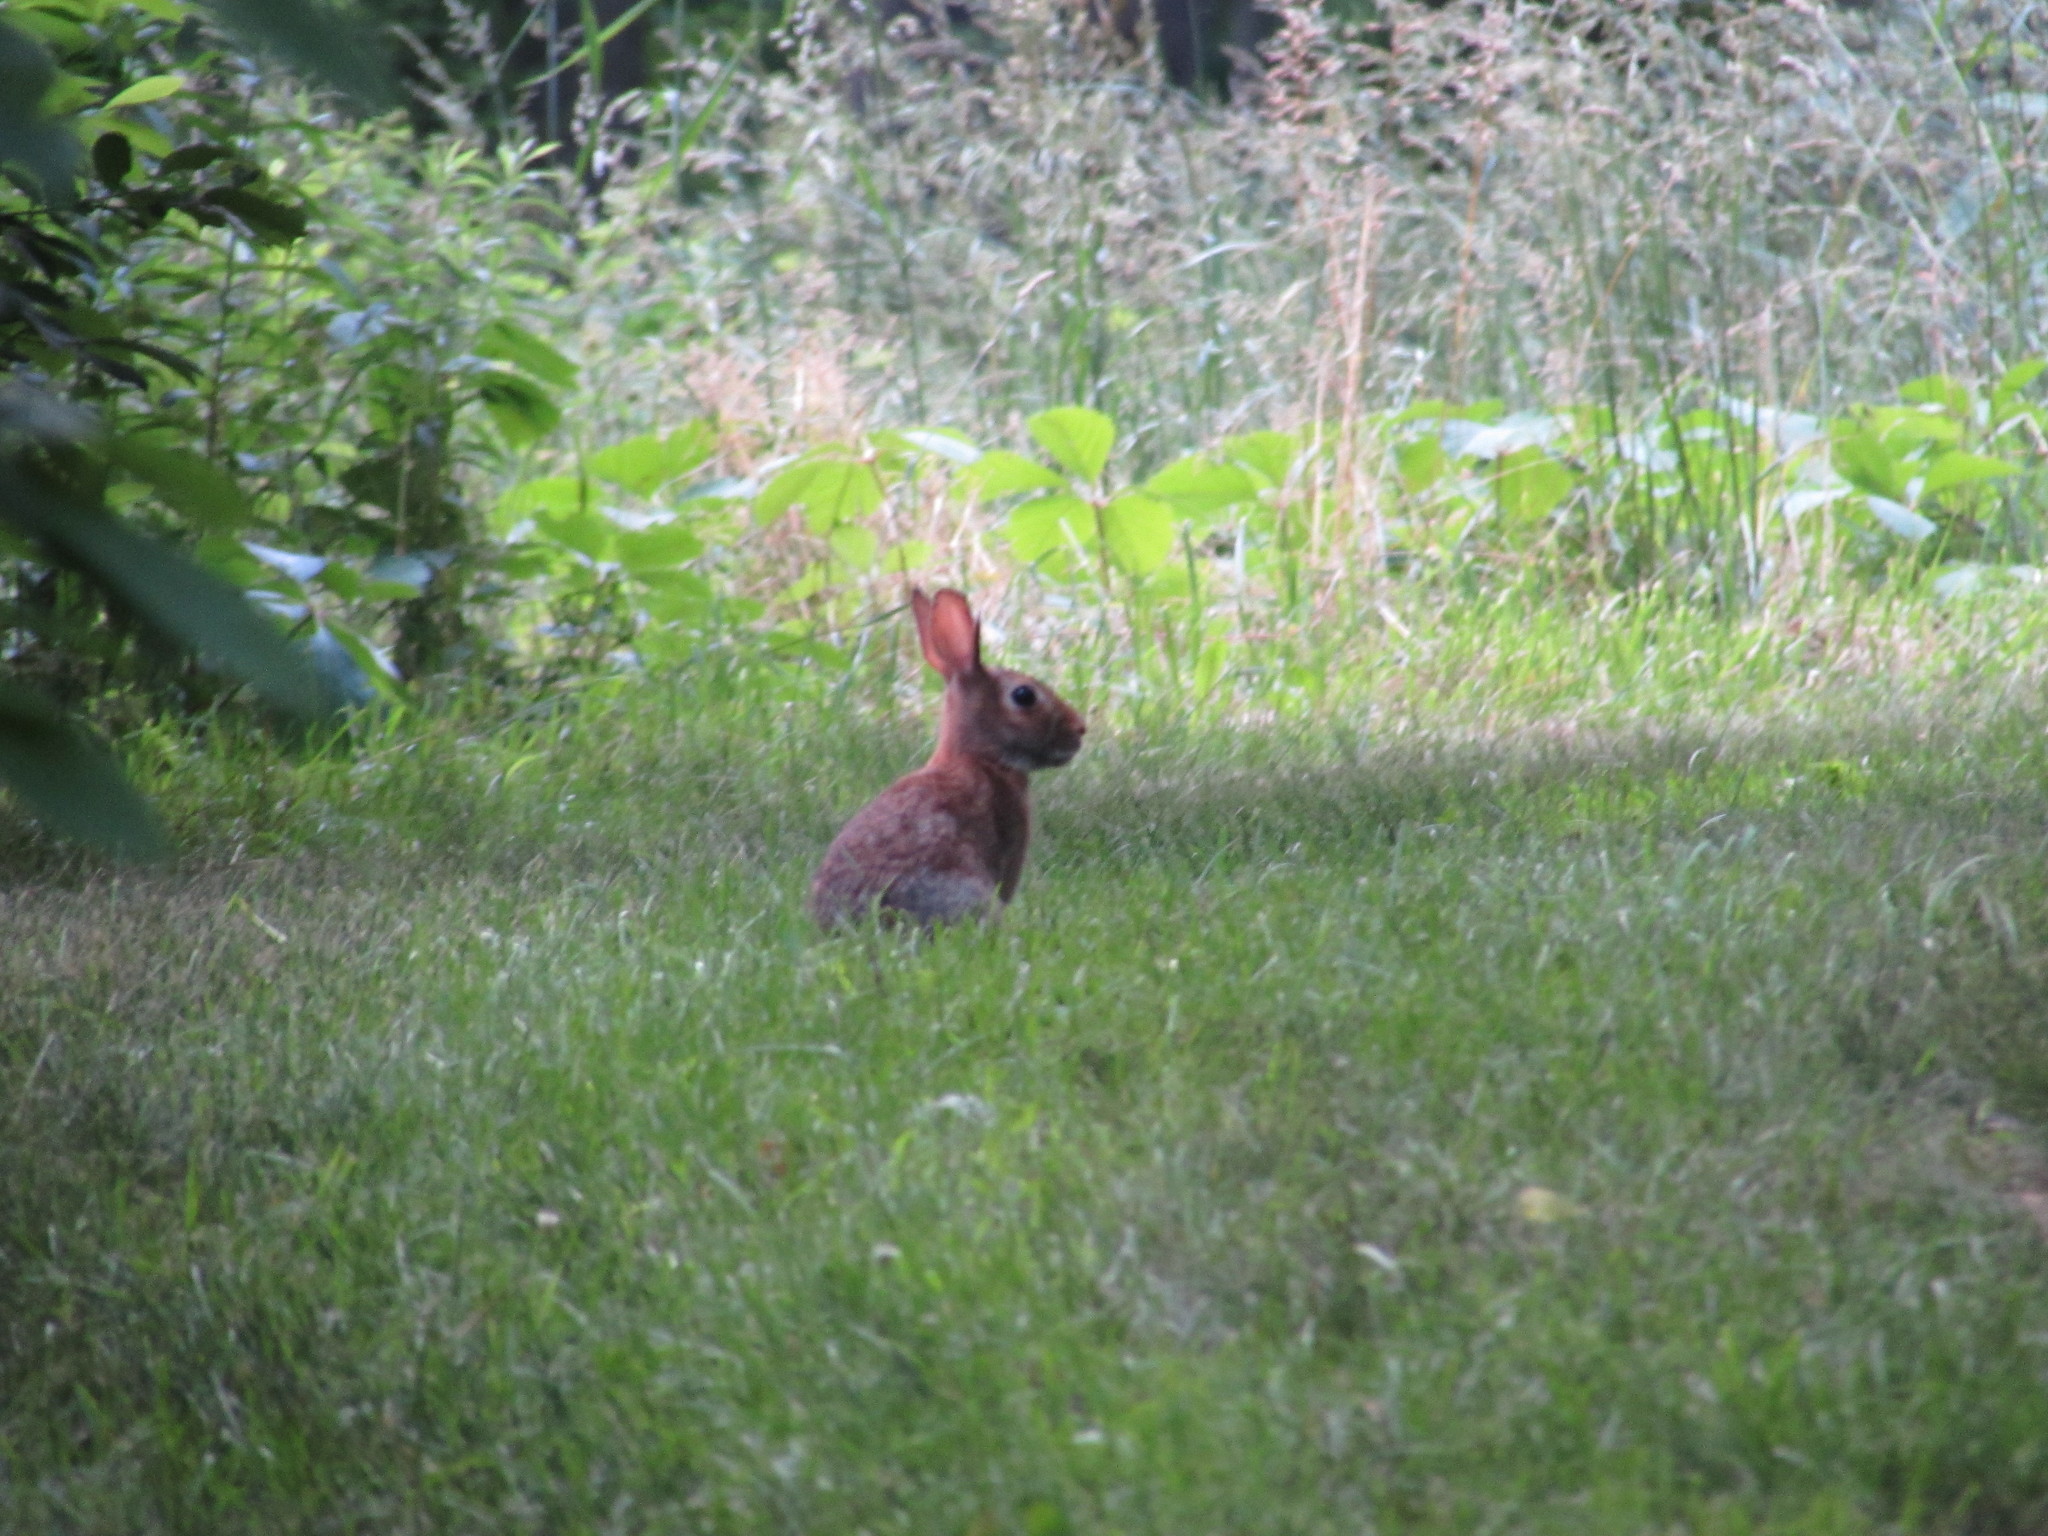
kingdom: Animalia
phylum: Chordata
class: Mammalia
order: Lagomorpha
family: Leporidae
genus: Sylvilagus
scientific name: Sylvilagus floridanus
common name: Eastern cottontail
